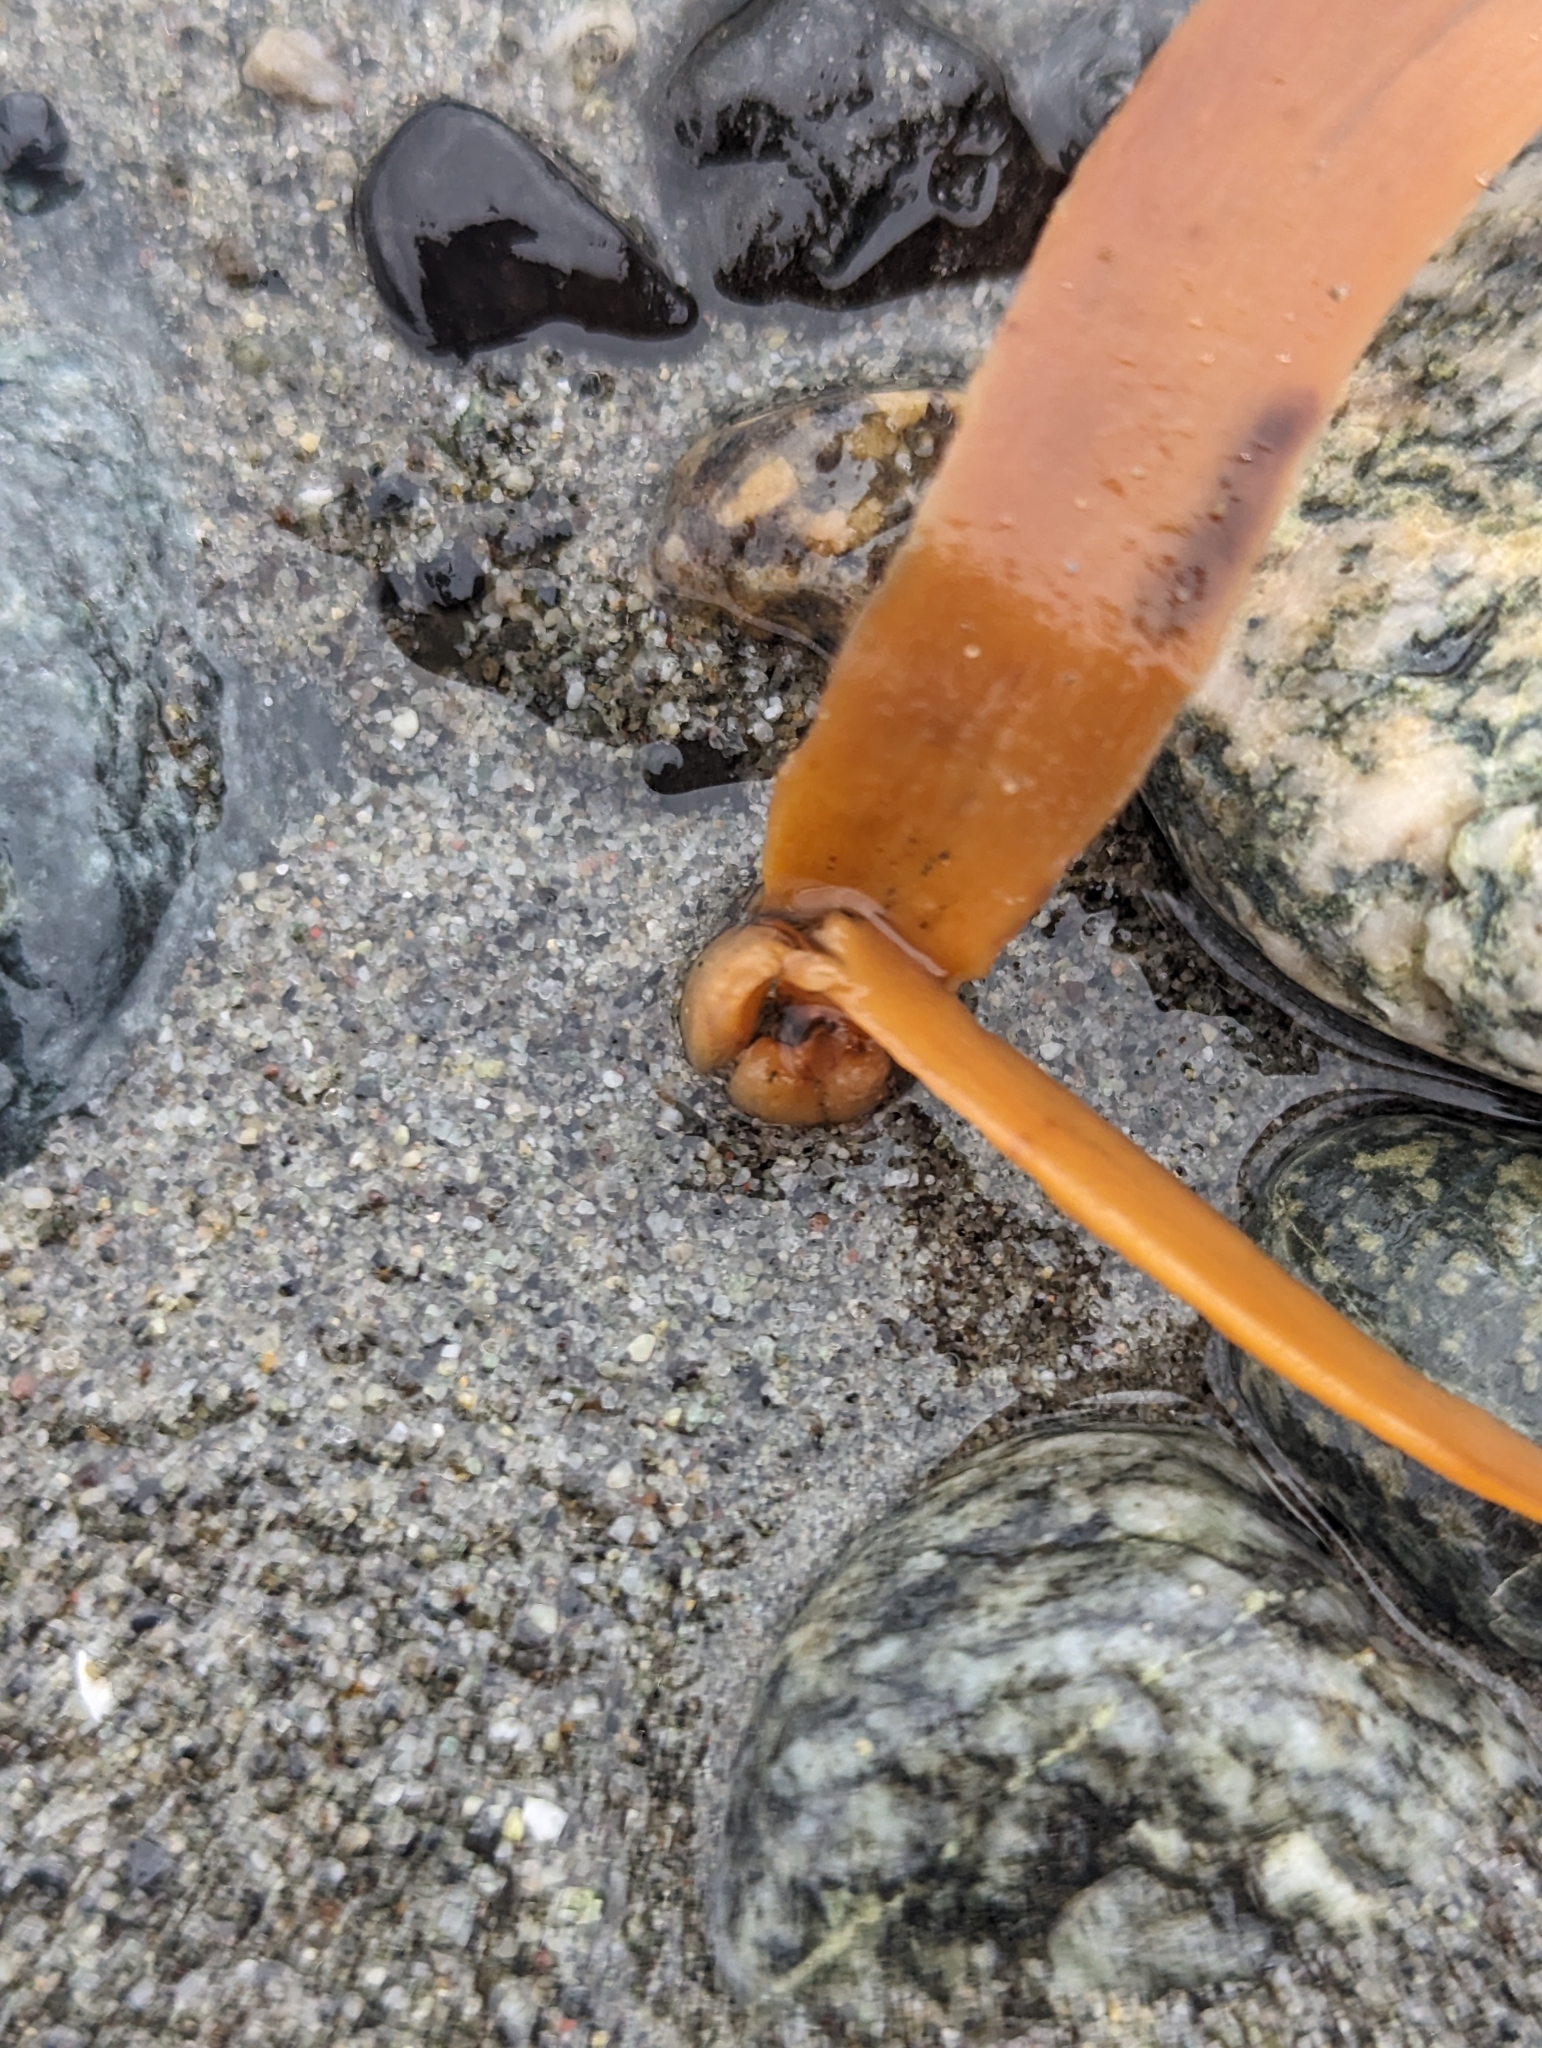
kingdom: Chromista
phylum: Ochrophyta
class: Phaeophyceae
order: Laminariales
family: Alariaceae
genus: Pterygophora
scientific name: Pterygophora californica
